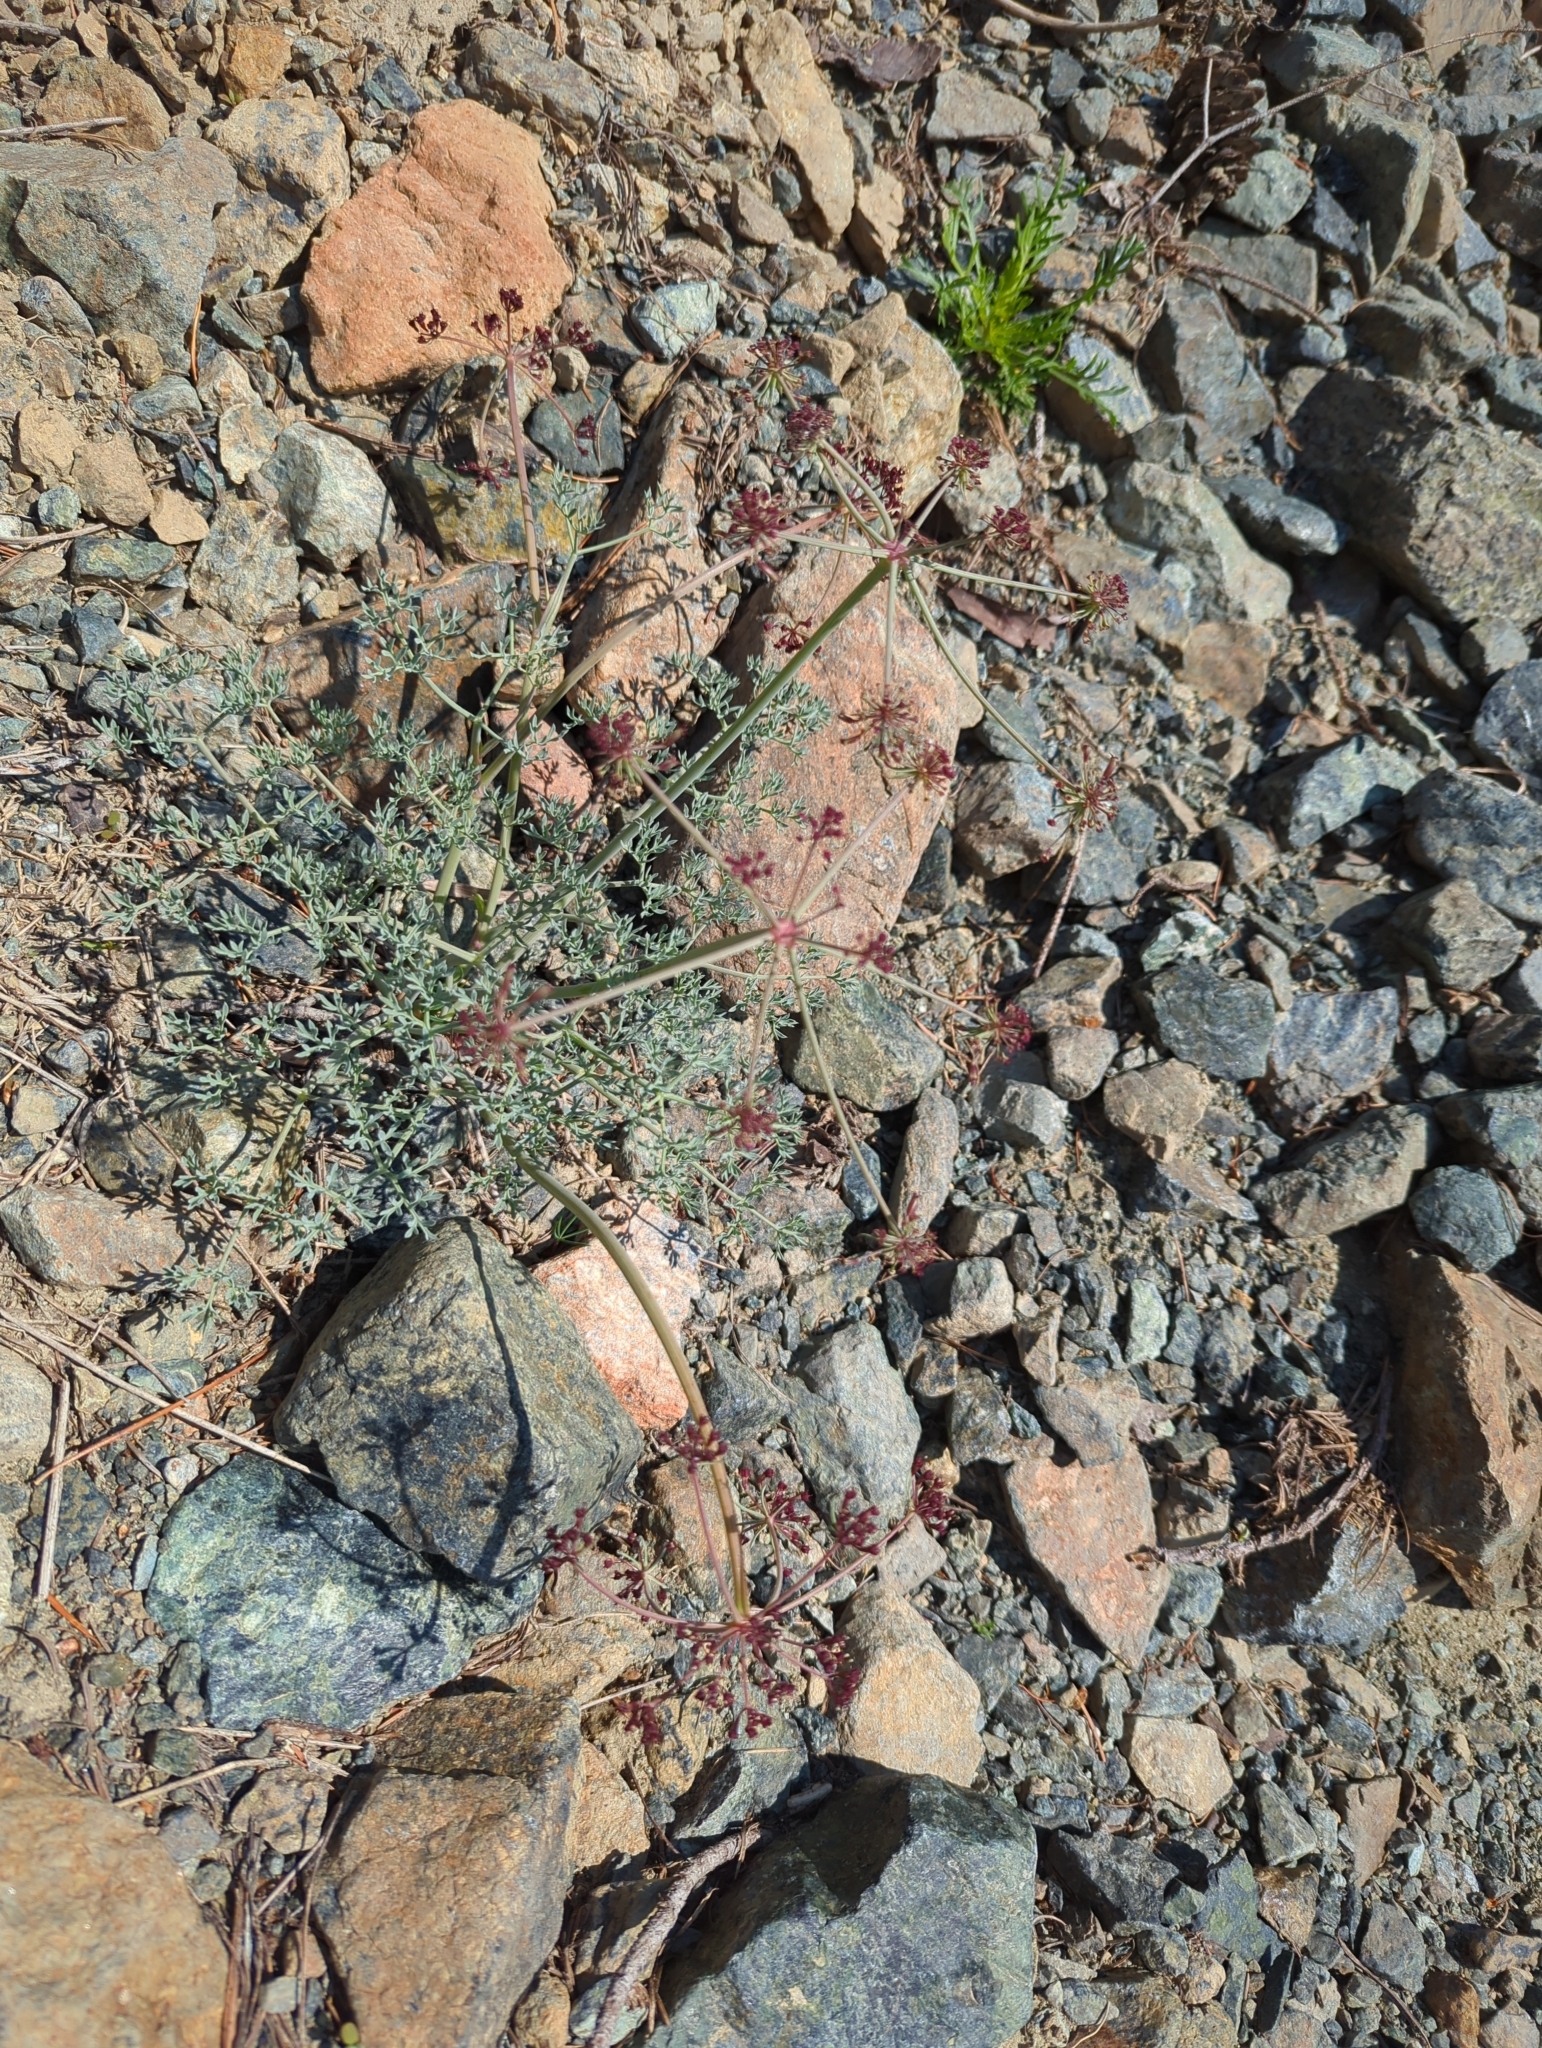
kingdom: Plantae
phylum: Tracheophyta
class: Magnoliopsida
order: Apiales
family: Apiaceae
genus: Lomatium
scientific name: Lomatium cuspidatum
